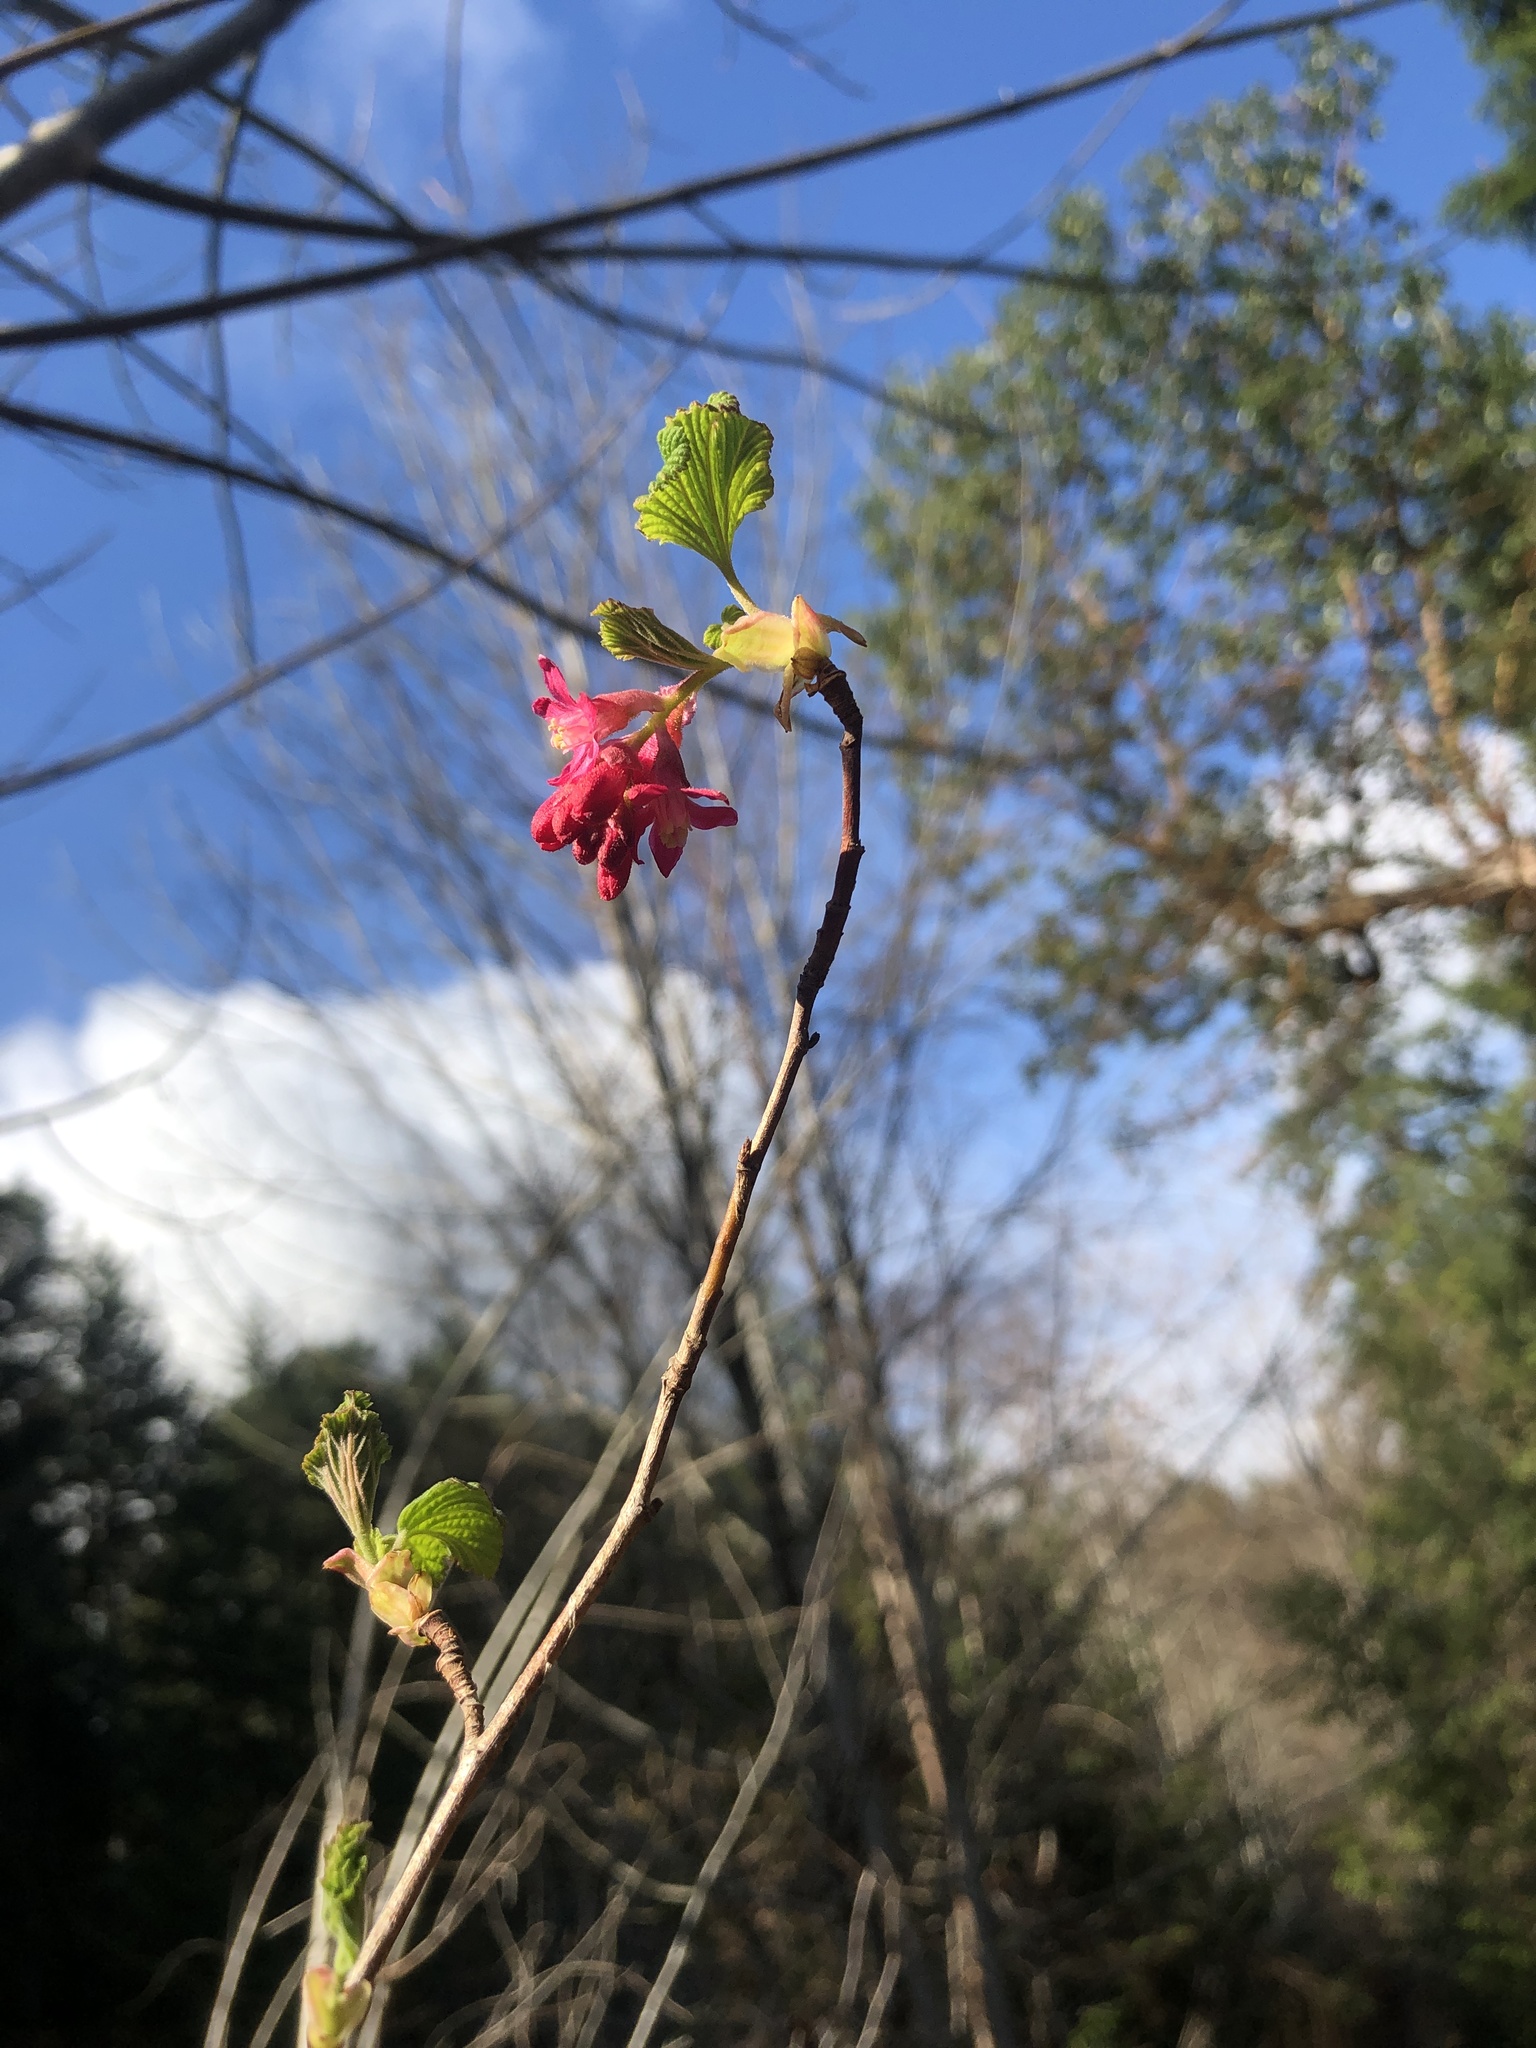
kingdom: Plantae
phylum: Tracheophyta
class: Magnoliopsida
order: Saxifragales
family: Grossulariaceae
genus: Ribes
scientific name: Ribes sanguineum
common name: Flowering currant
